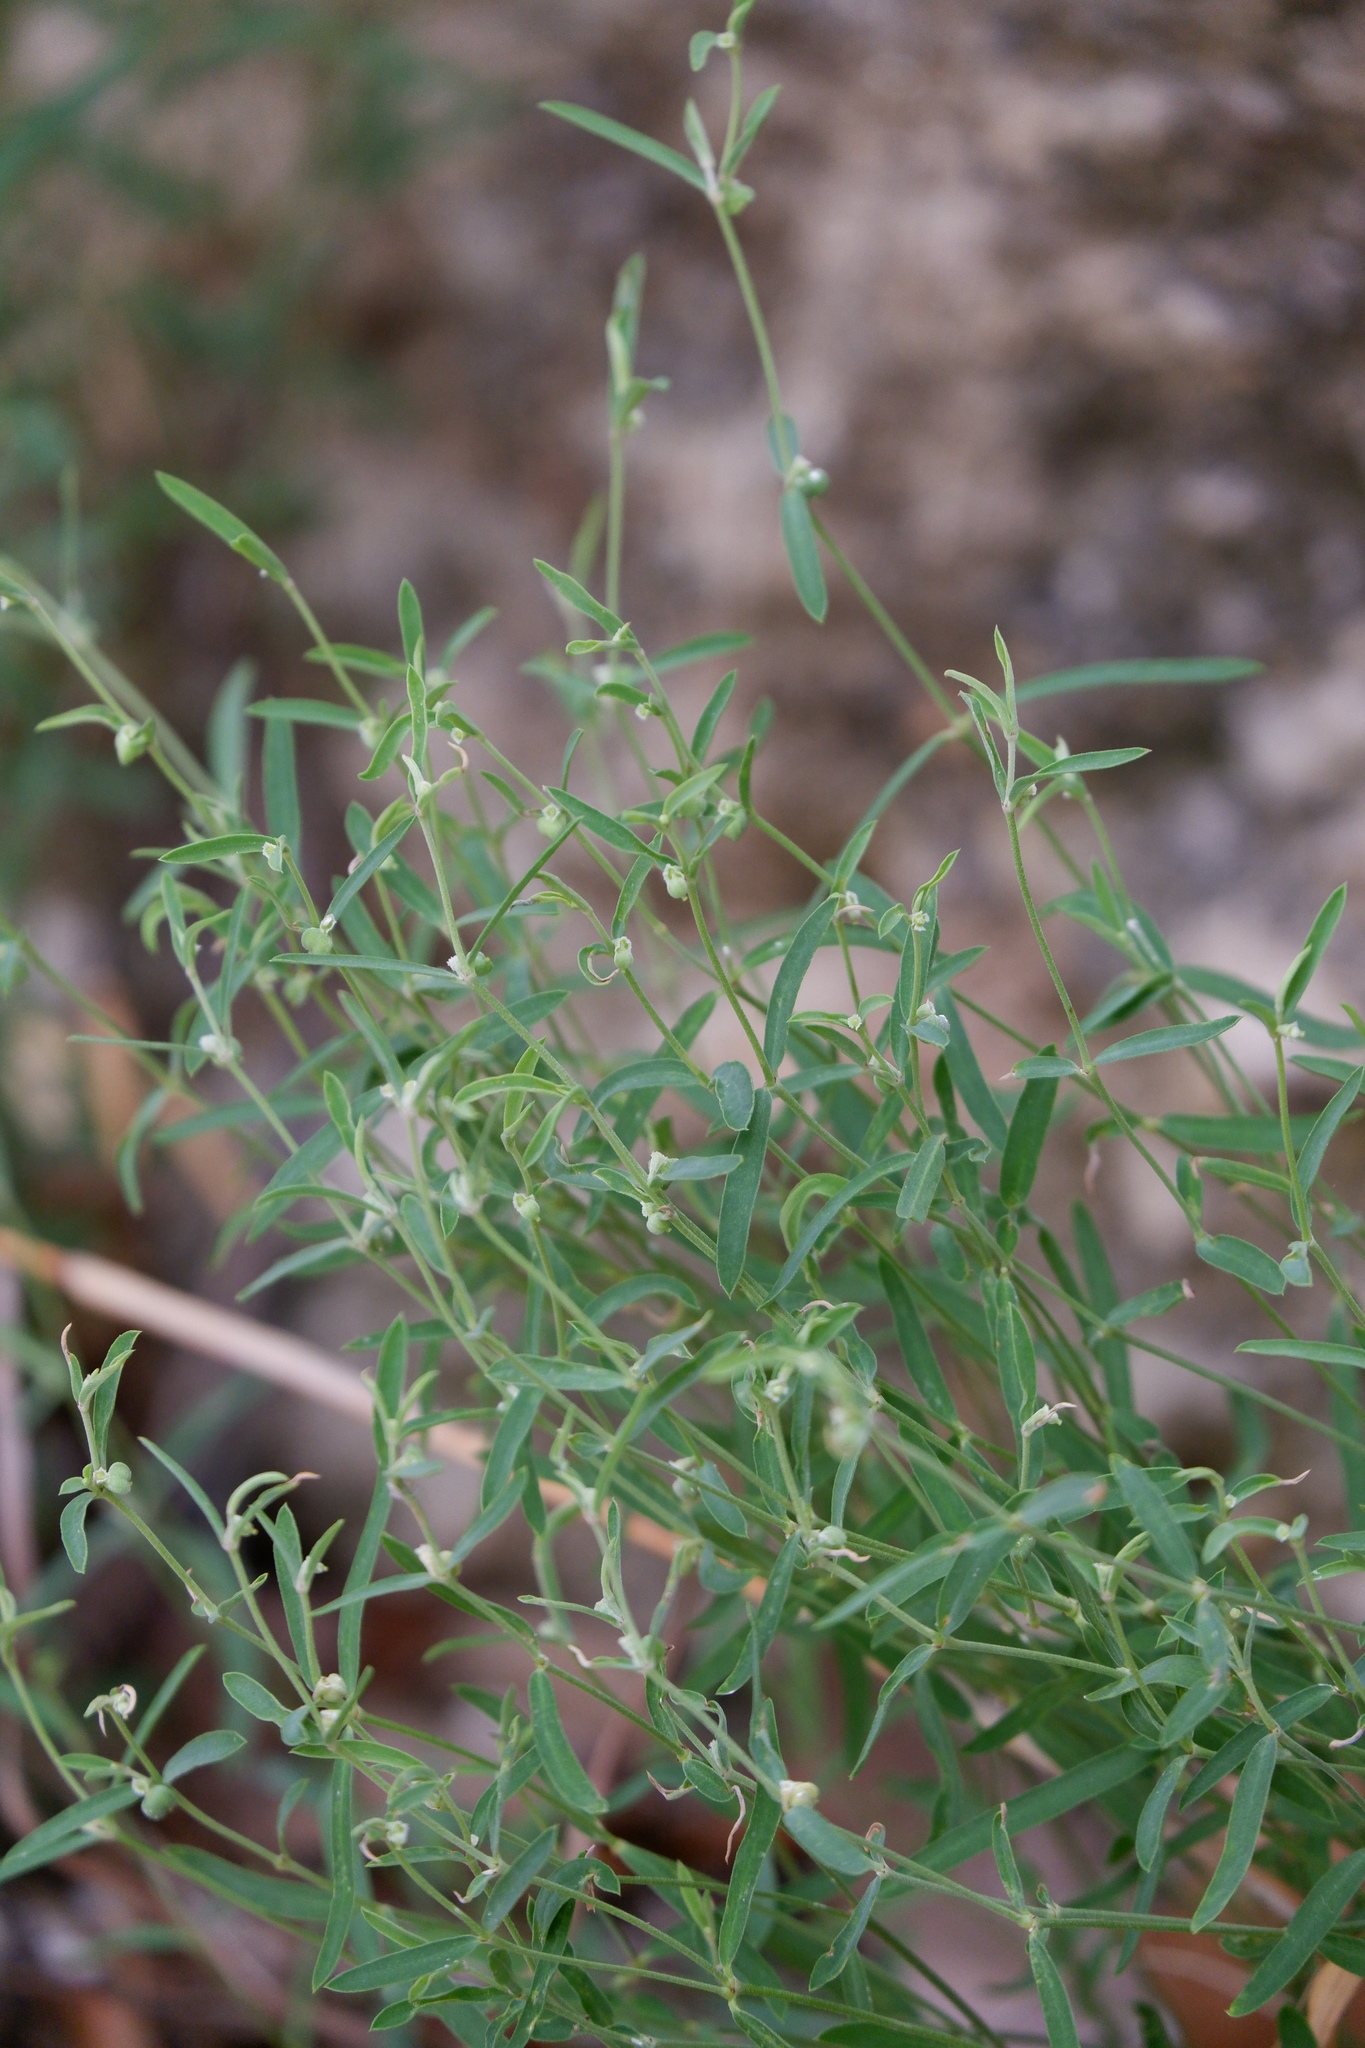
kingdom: Plantae
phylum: Tracheophyta
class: Magnoliopsida
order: Malpighiales
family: Euphorbiaceae
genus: Euphorbia
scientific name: Euphorbia angusta
